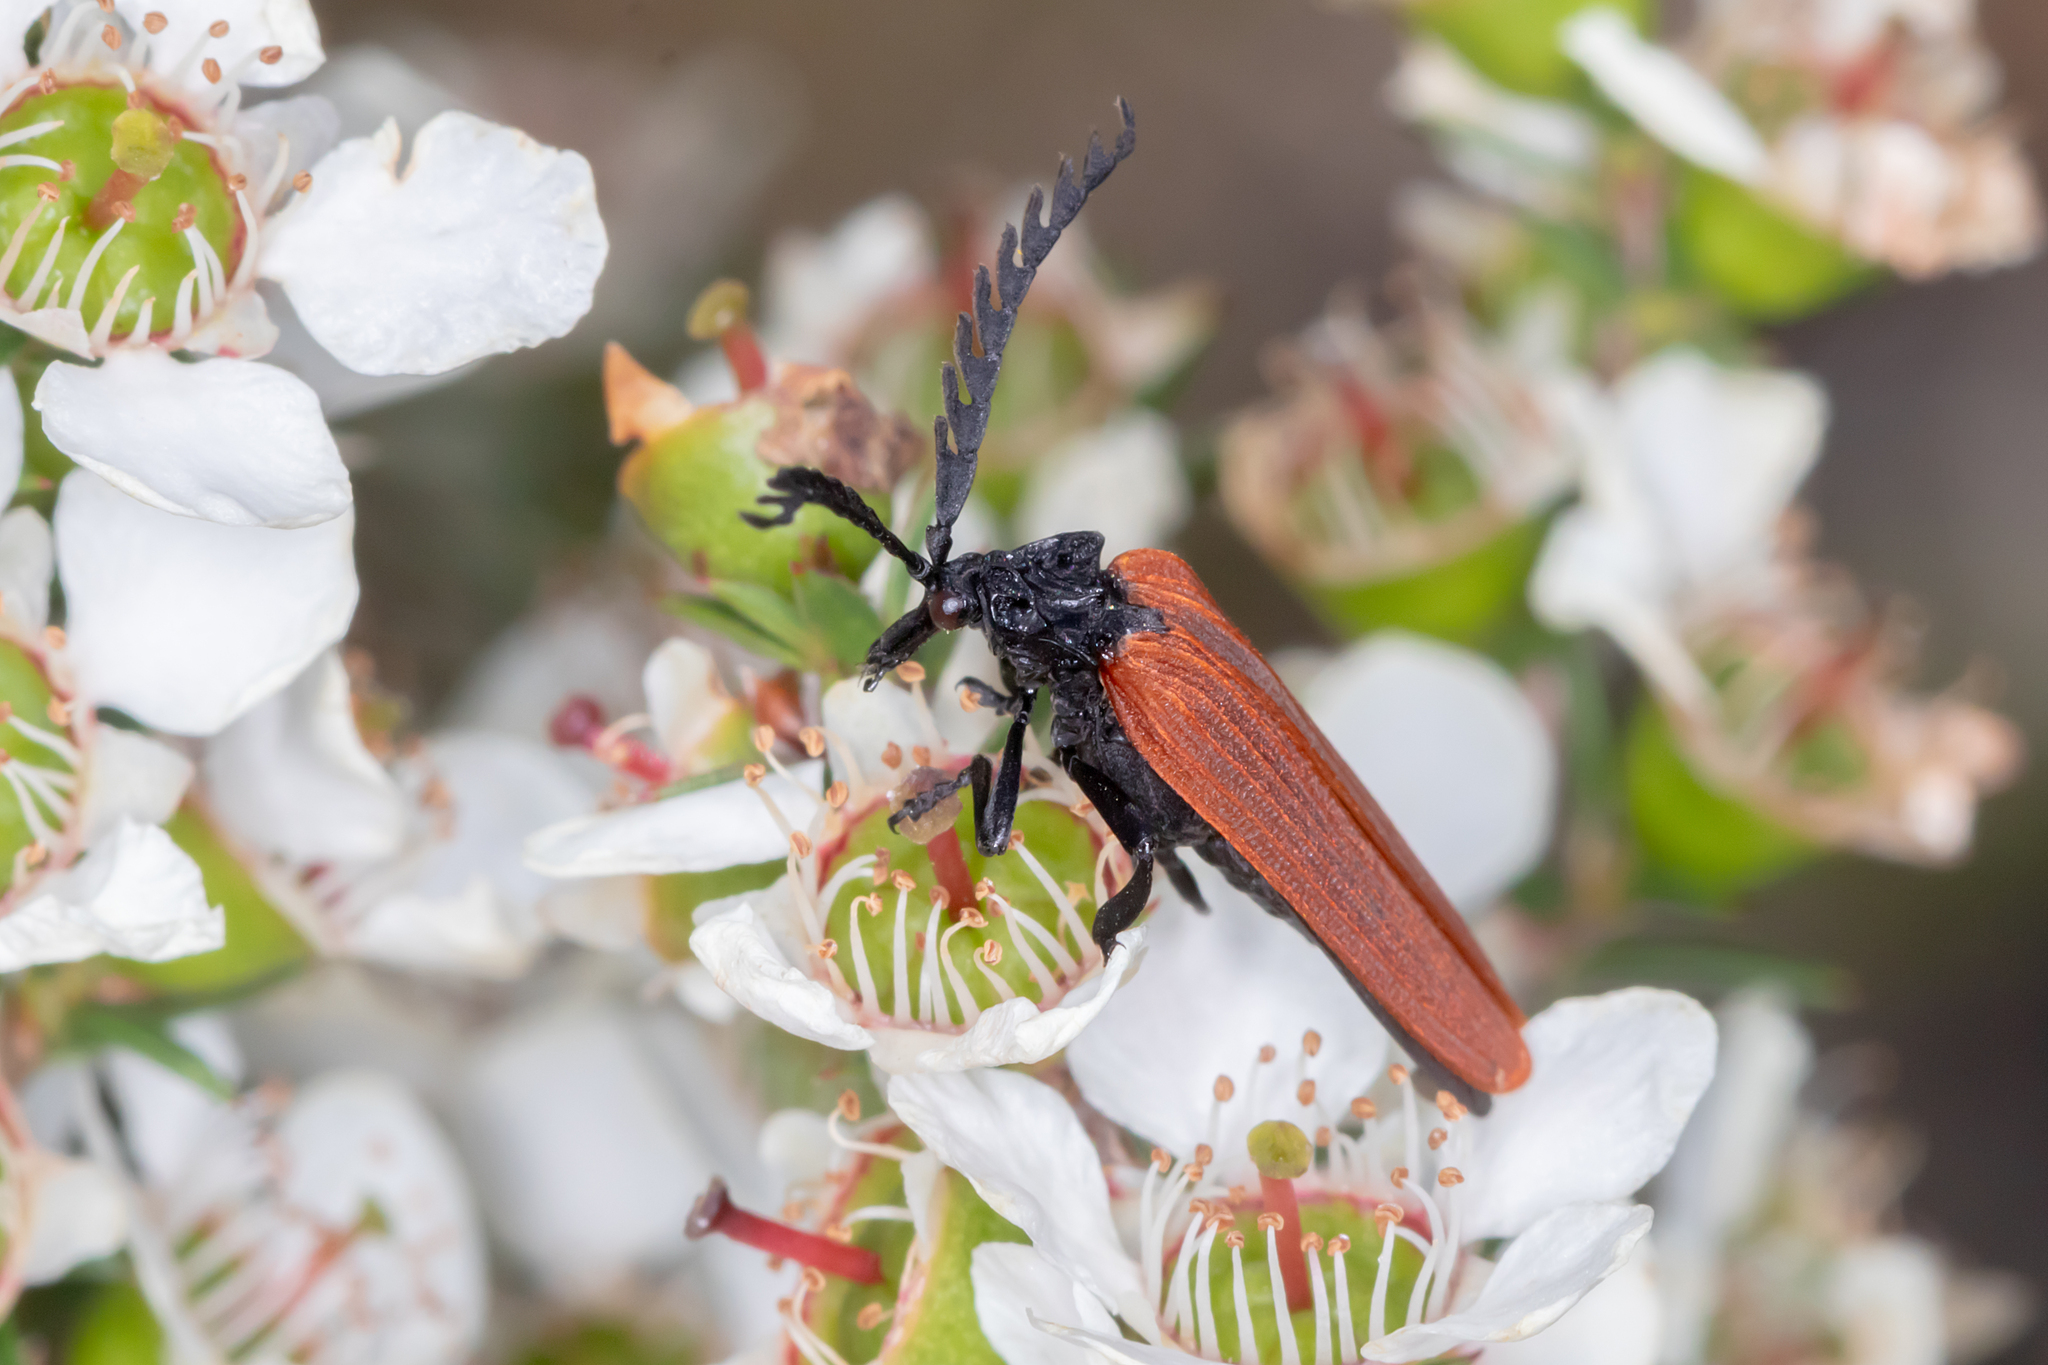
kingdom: Animalia
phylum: Arthropoda
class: Insecta
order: Coleoptera
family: Lycidae
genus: Porrostoma
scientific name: Porrostoma rhipidium
